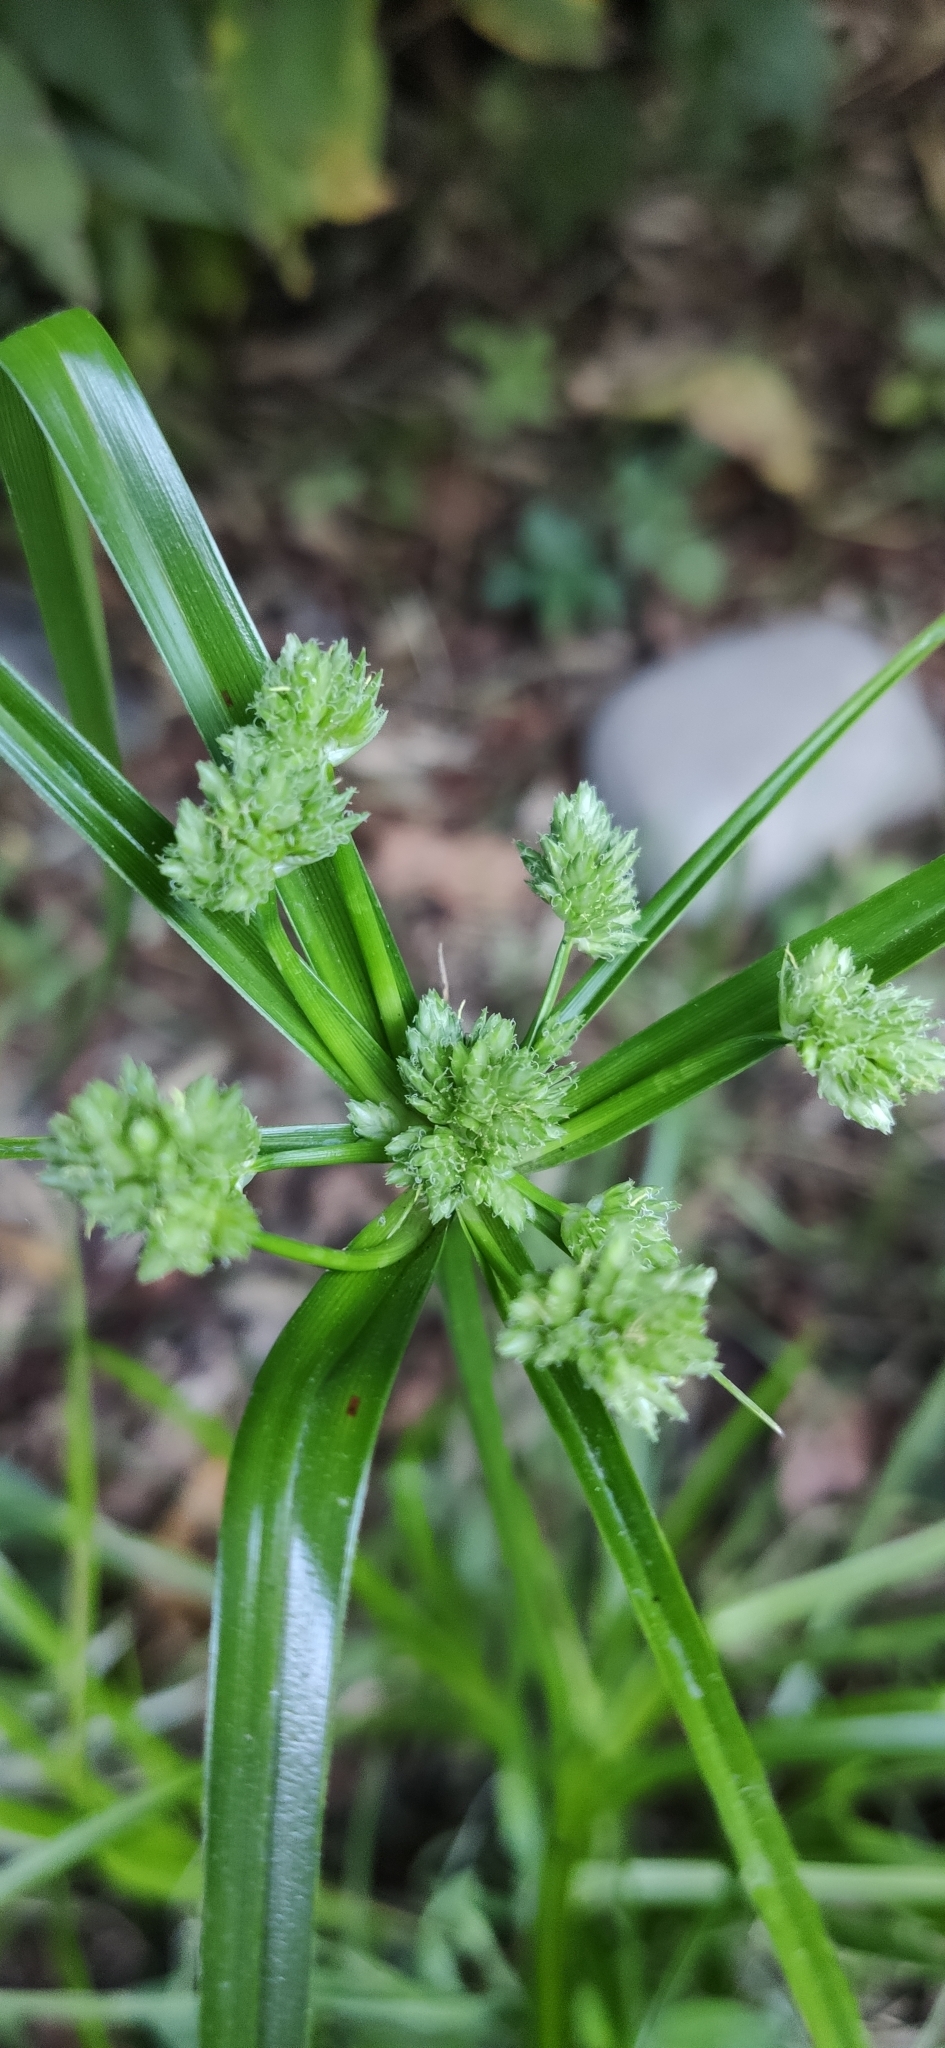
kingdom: Plantae
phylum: Tracheophyta
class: Liliopsida
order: Poales
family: Cyperaceae
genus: Cyperus
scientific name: Cyperus eragrostis
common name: Tall flatsedge
